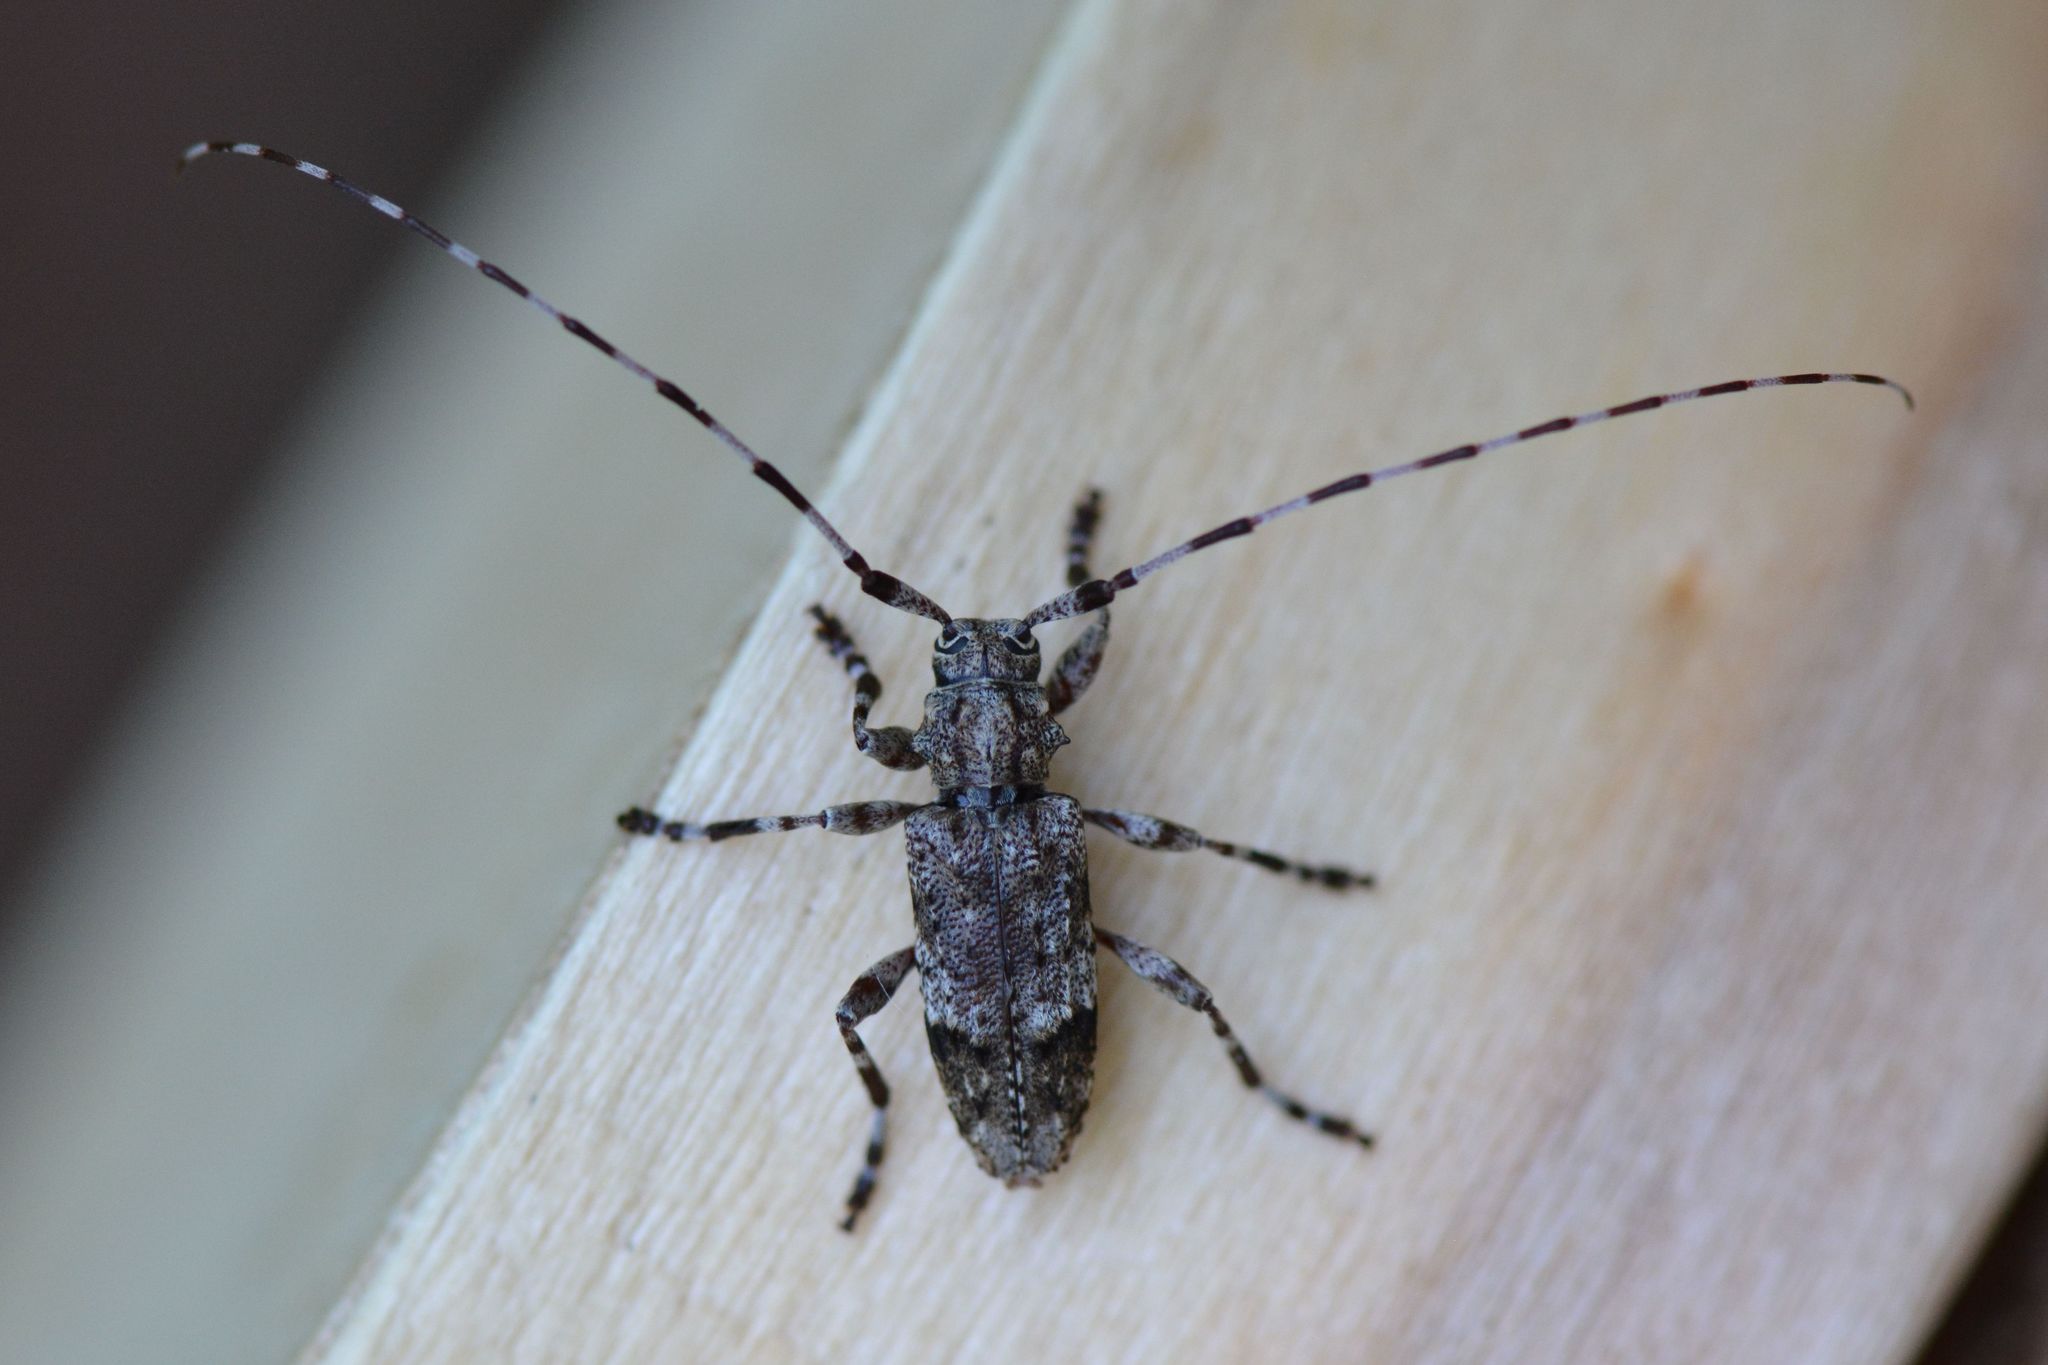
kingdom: Animalia
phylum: Arthropoda
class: Insecta
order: Coleoptera
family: Cerambycidae
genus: Acanthocinus
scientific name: Acanthocinus reticulatus
